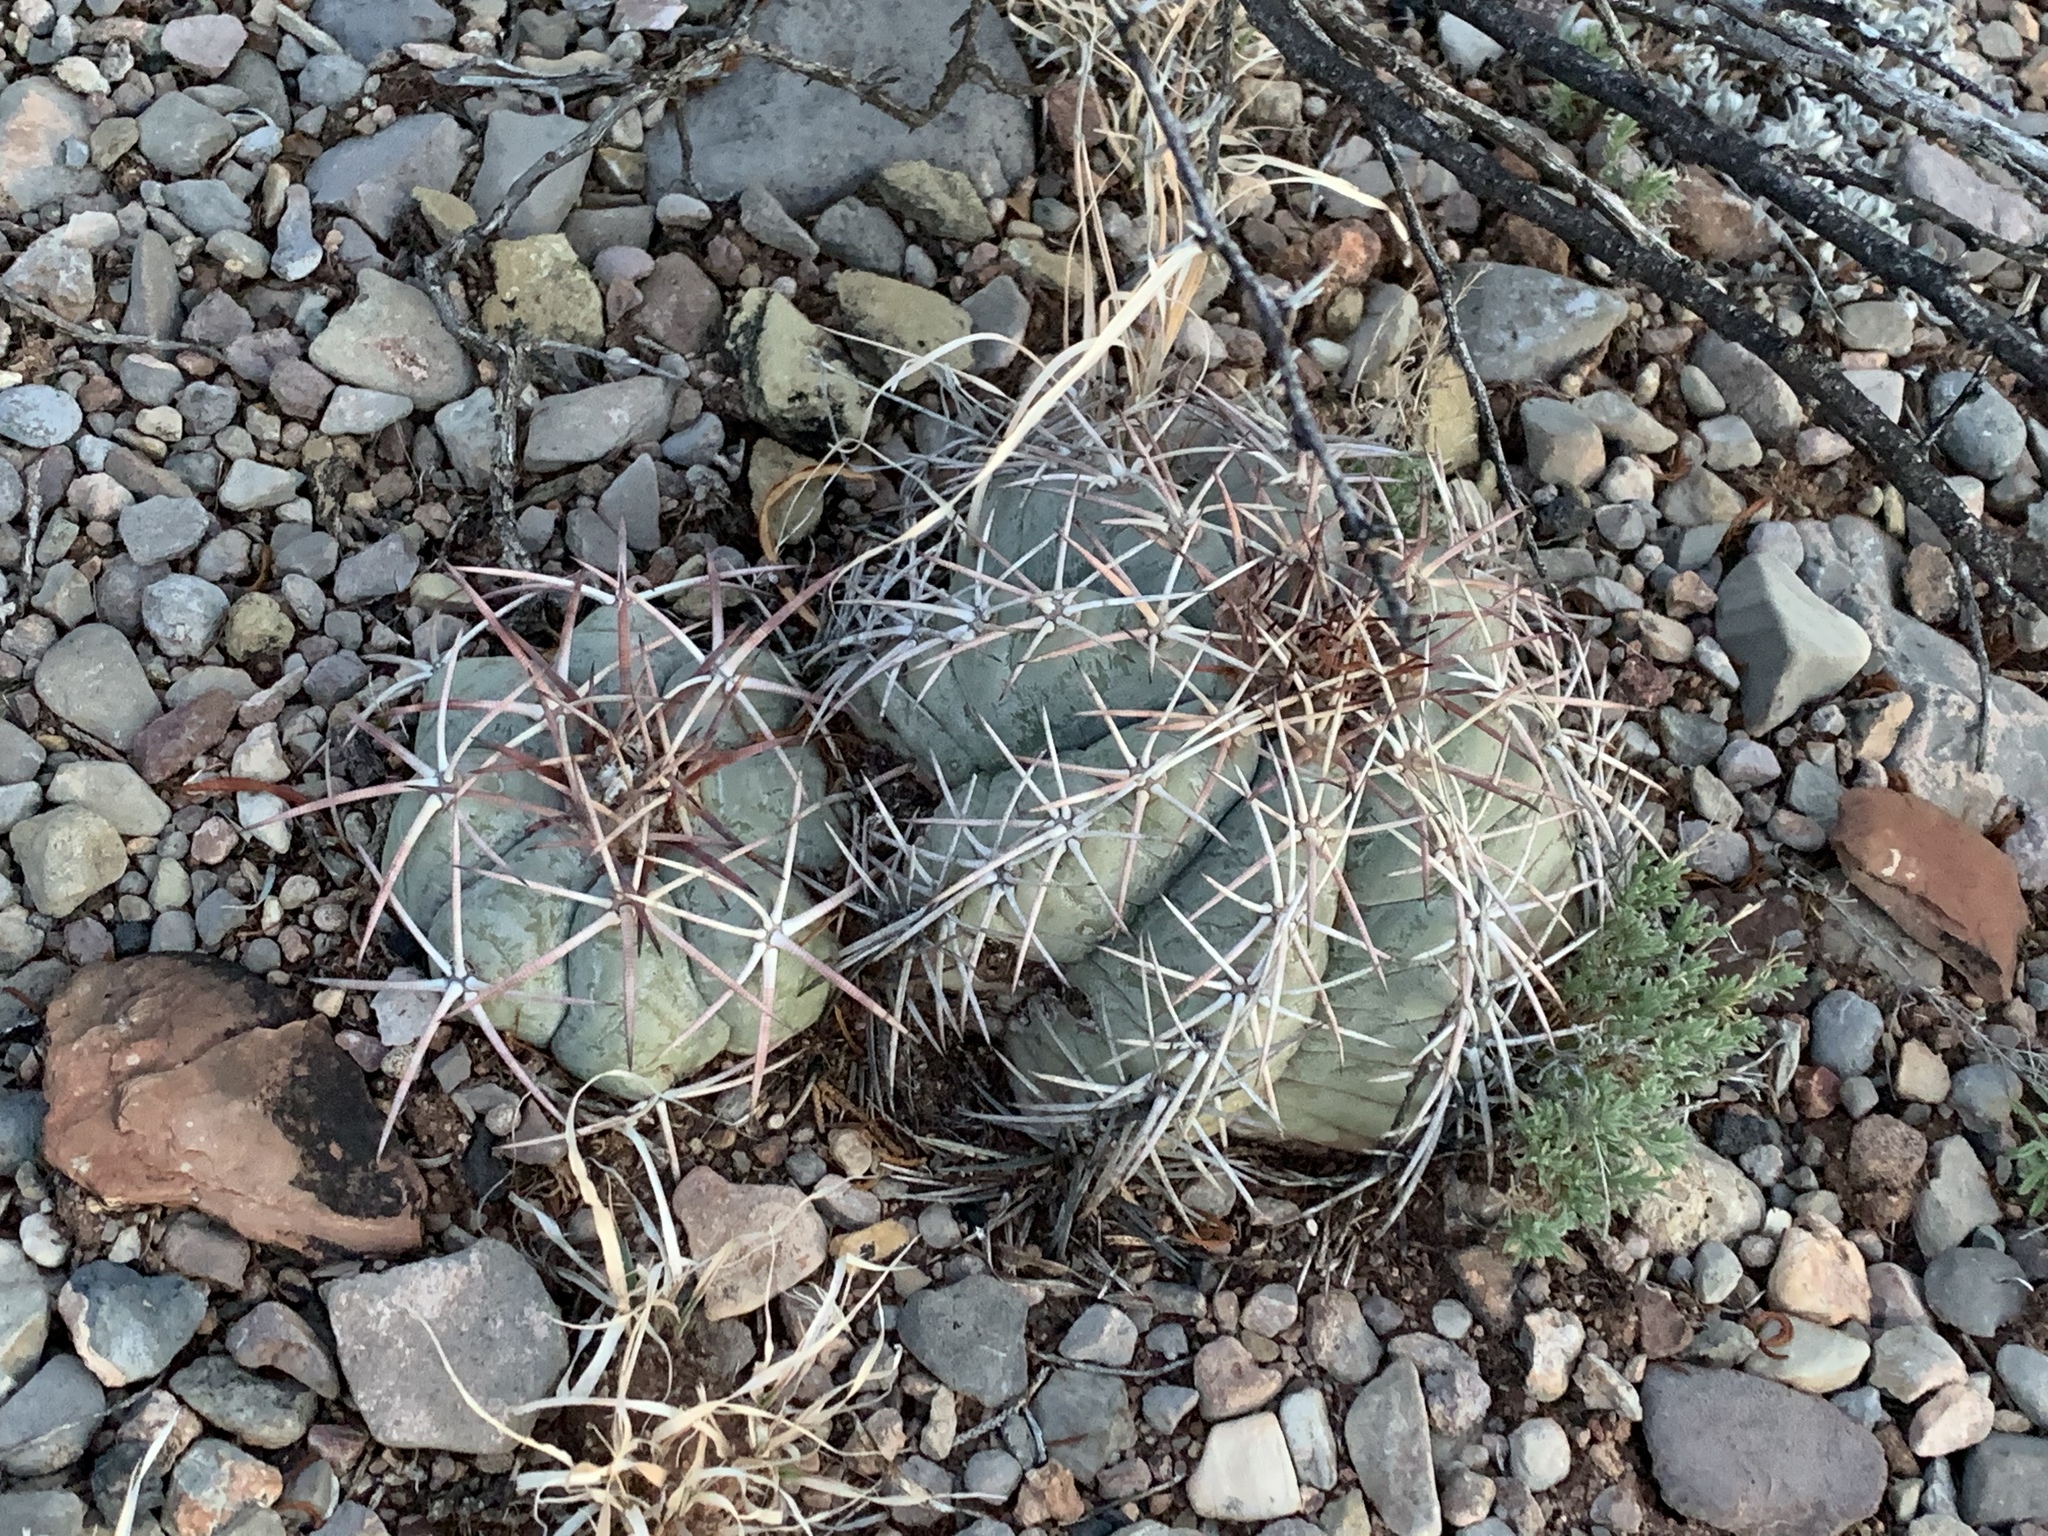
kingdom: Plantae
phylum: Tracheophyta
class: Magnoliopsida
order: Caryophyllales
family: Cactaceae
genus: Echinocactus
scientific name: Echinocactus horizonthalonius
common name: Devilshead
